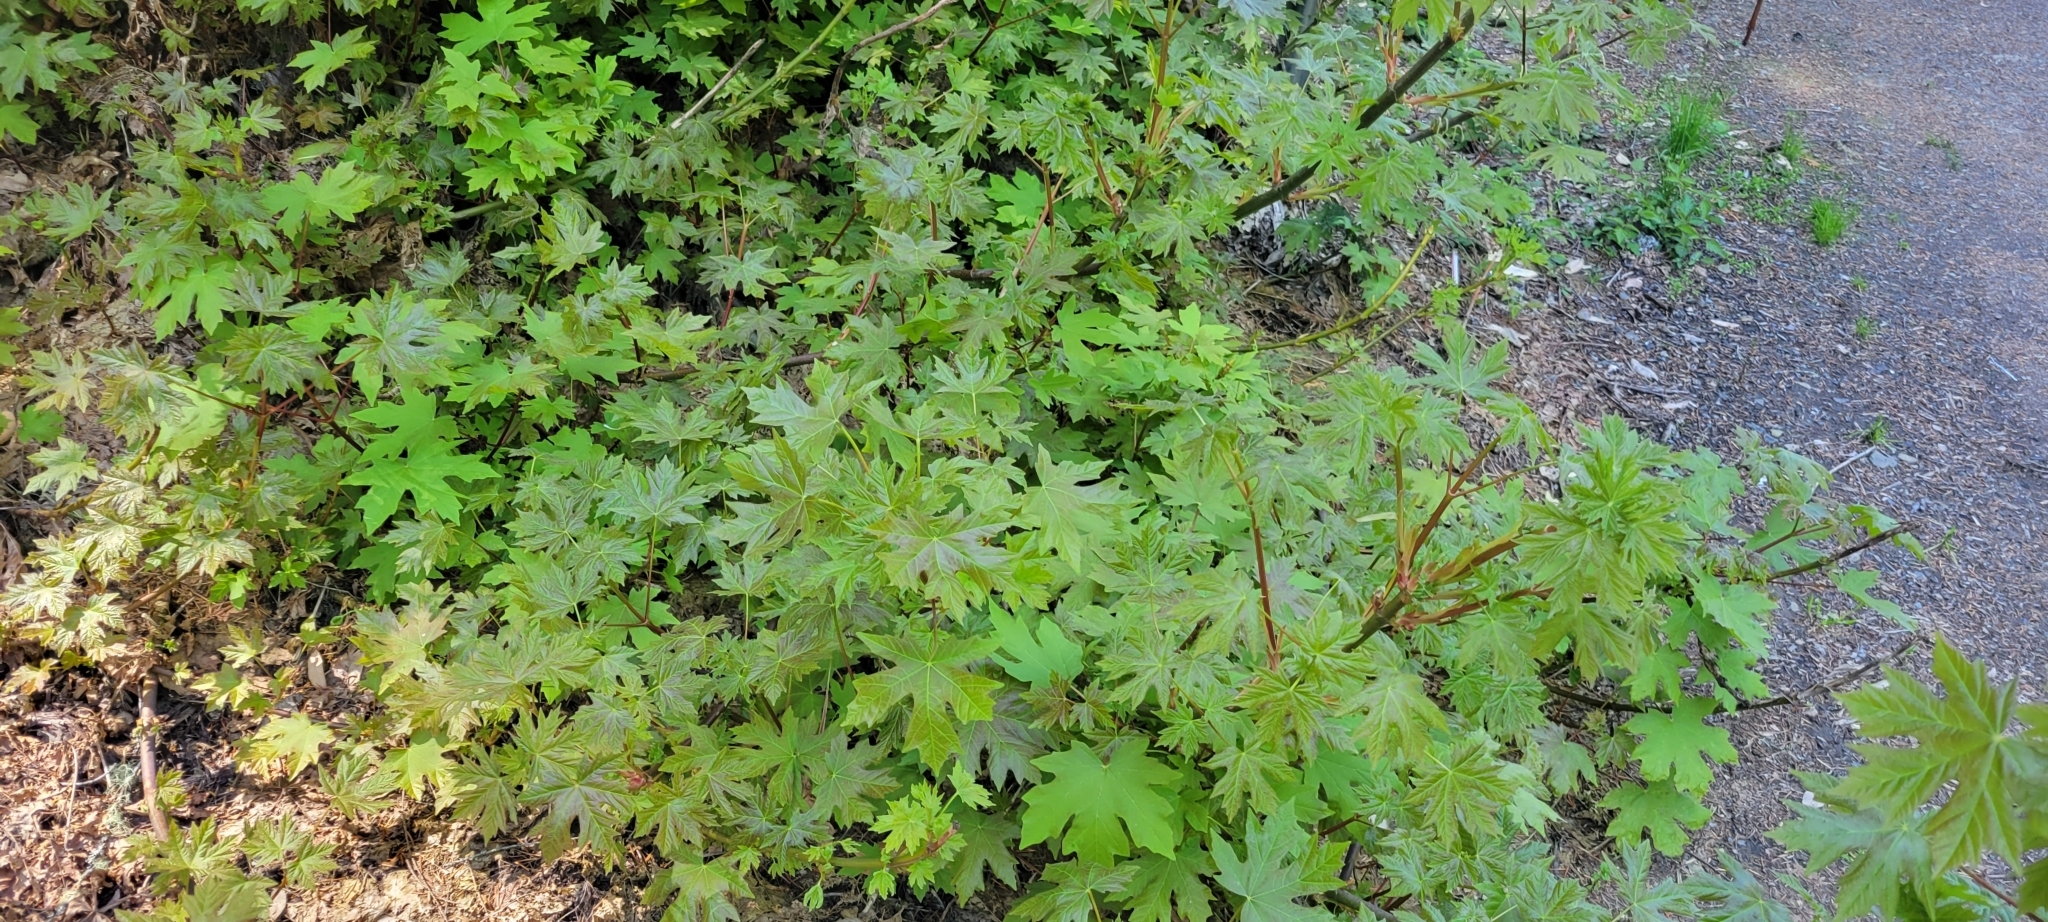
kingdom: Plantae
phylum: Tracheophyta
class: Magnoliopsida
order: Sapindales
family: Sapindaceae
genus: Acer
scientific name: Acer macrophyllum
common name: Oregon maple
